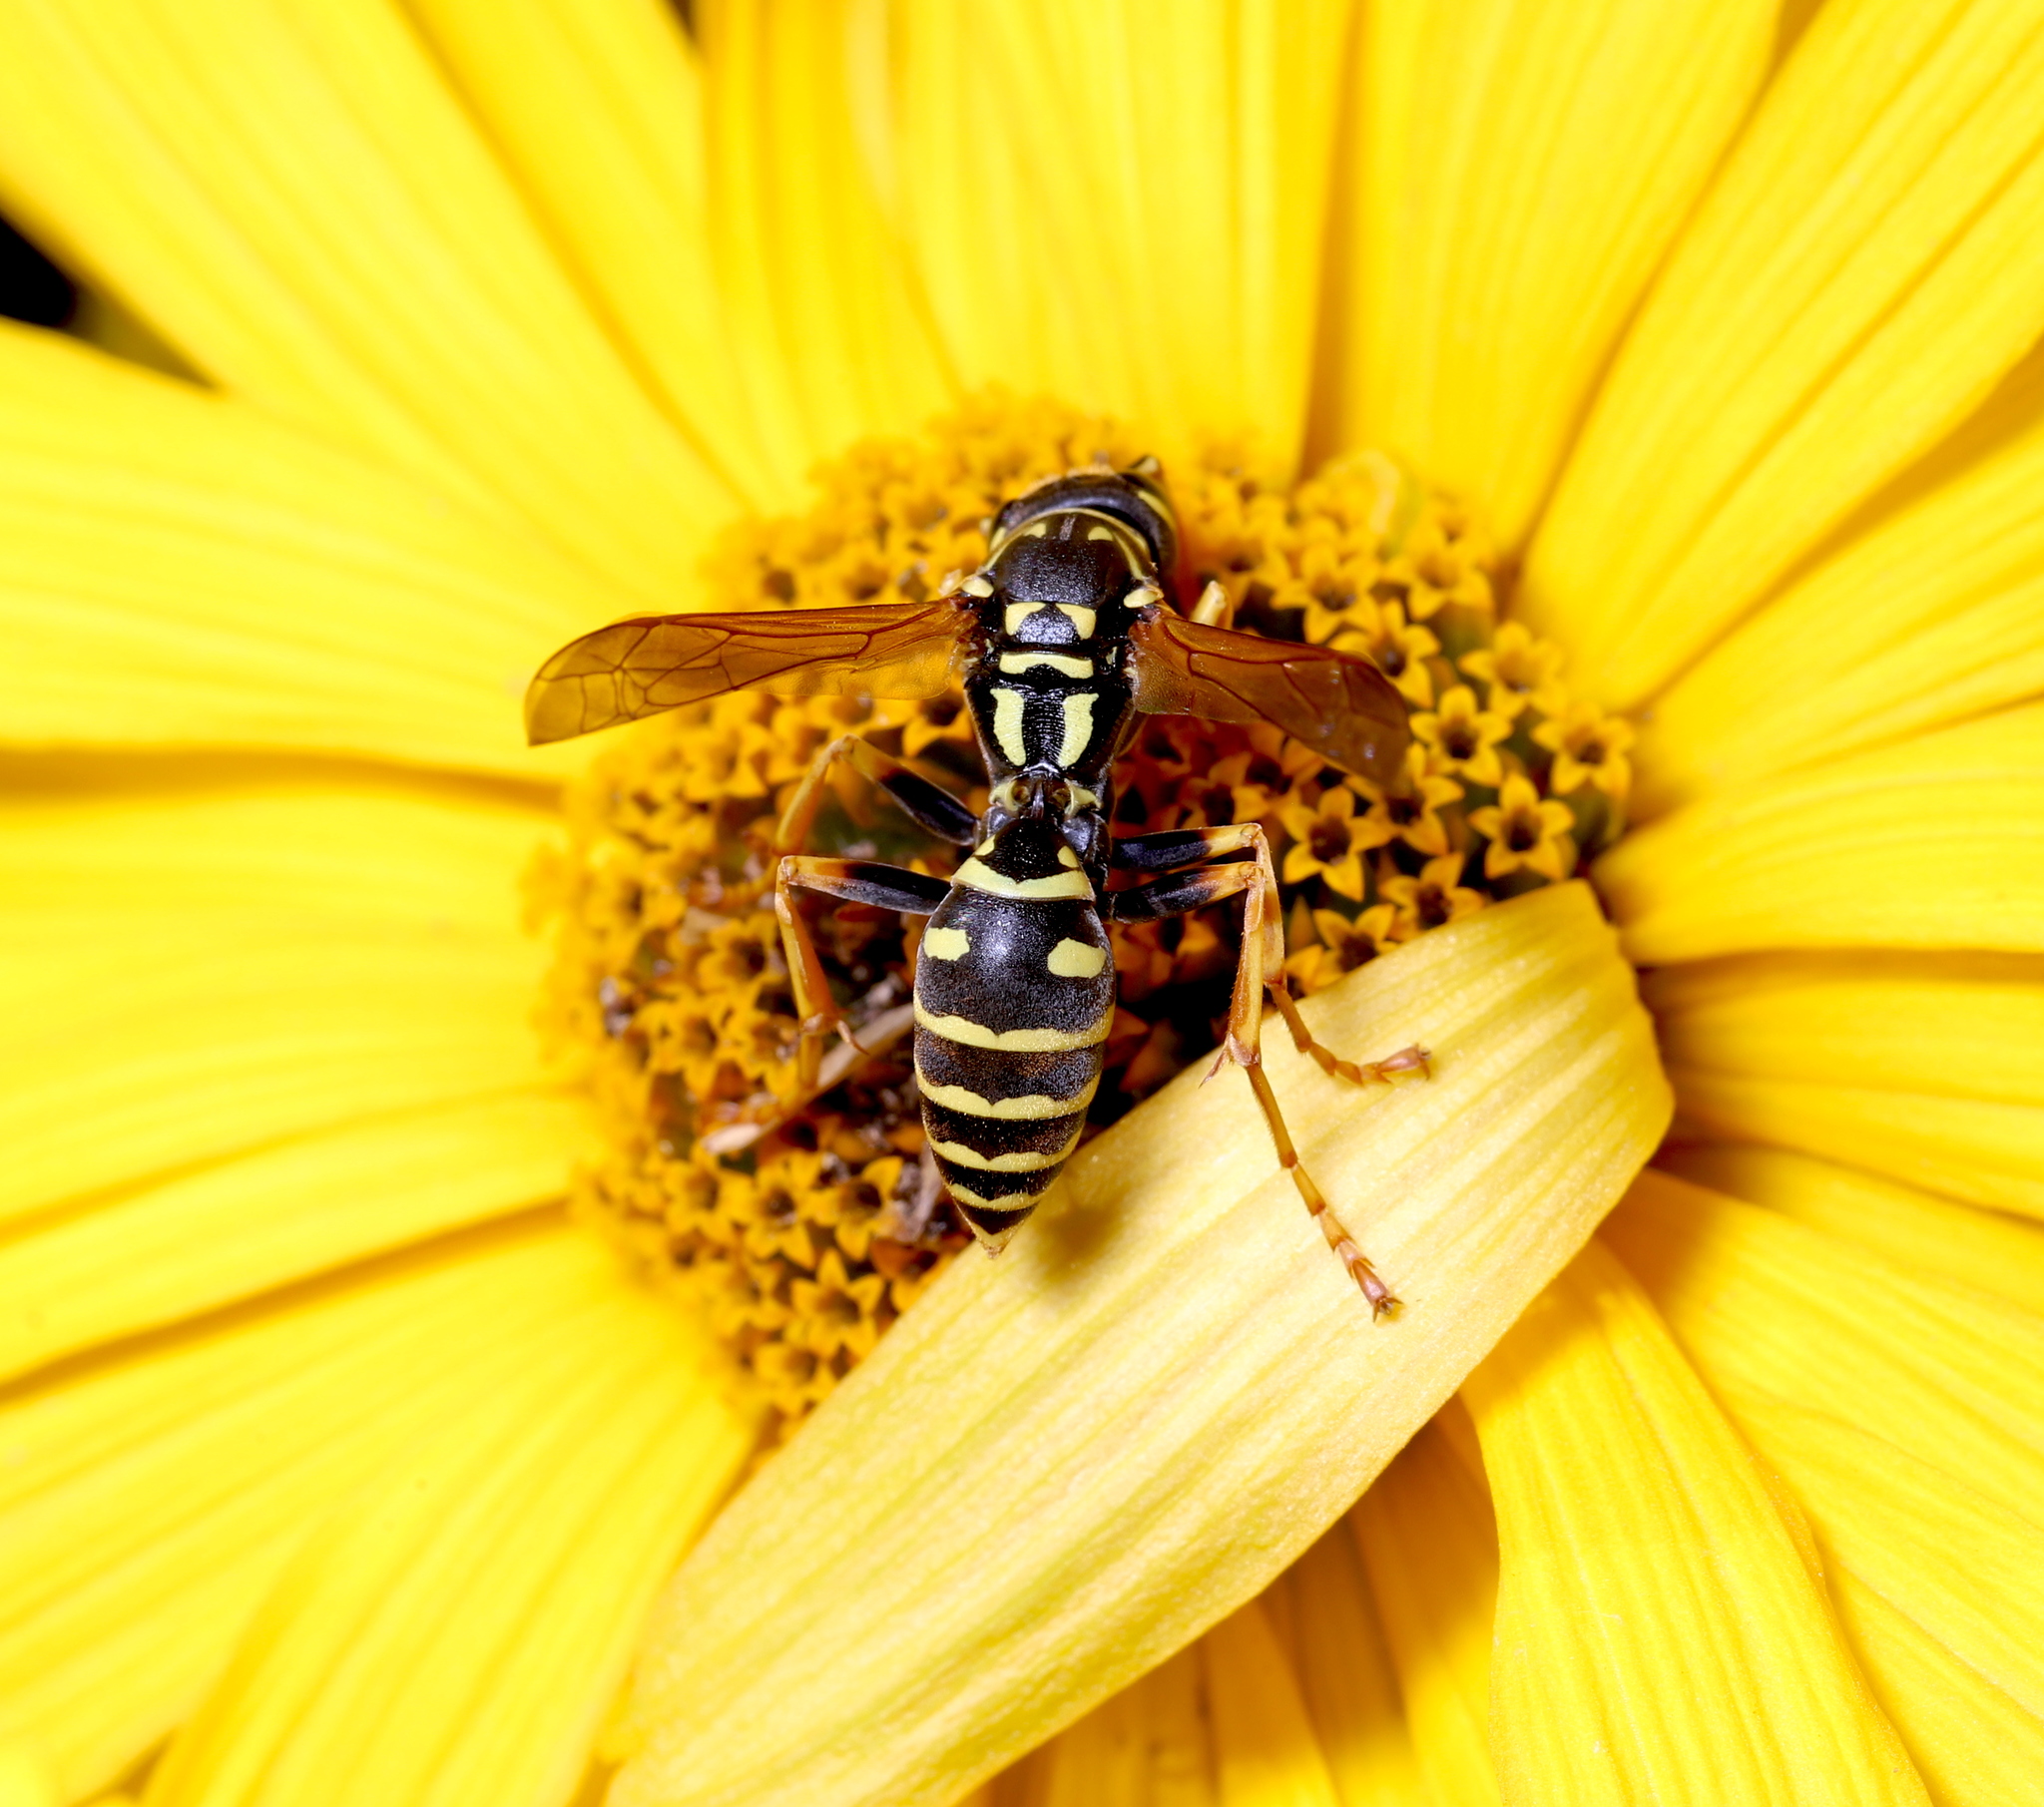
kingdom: Animalia
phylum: Arthropoda
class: Insecta
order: Hymenoptera
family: Eumenidae
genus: Polistes
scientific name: Polistes dominula
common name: Paper wasp
